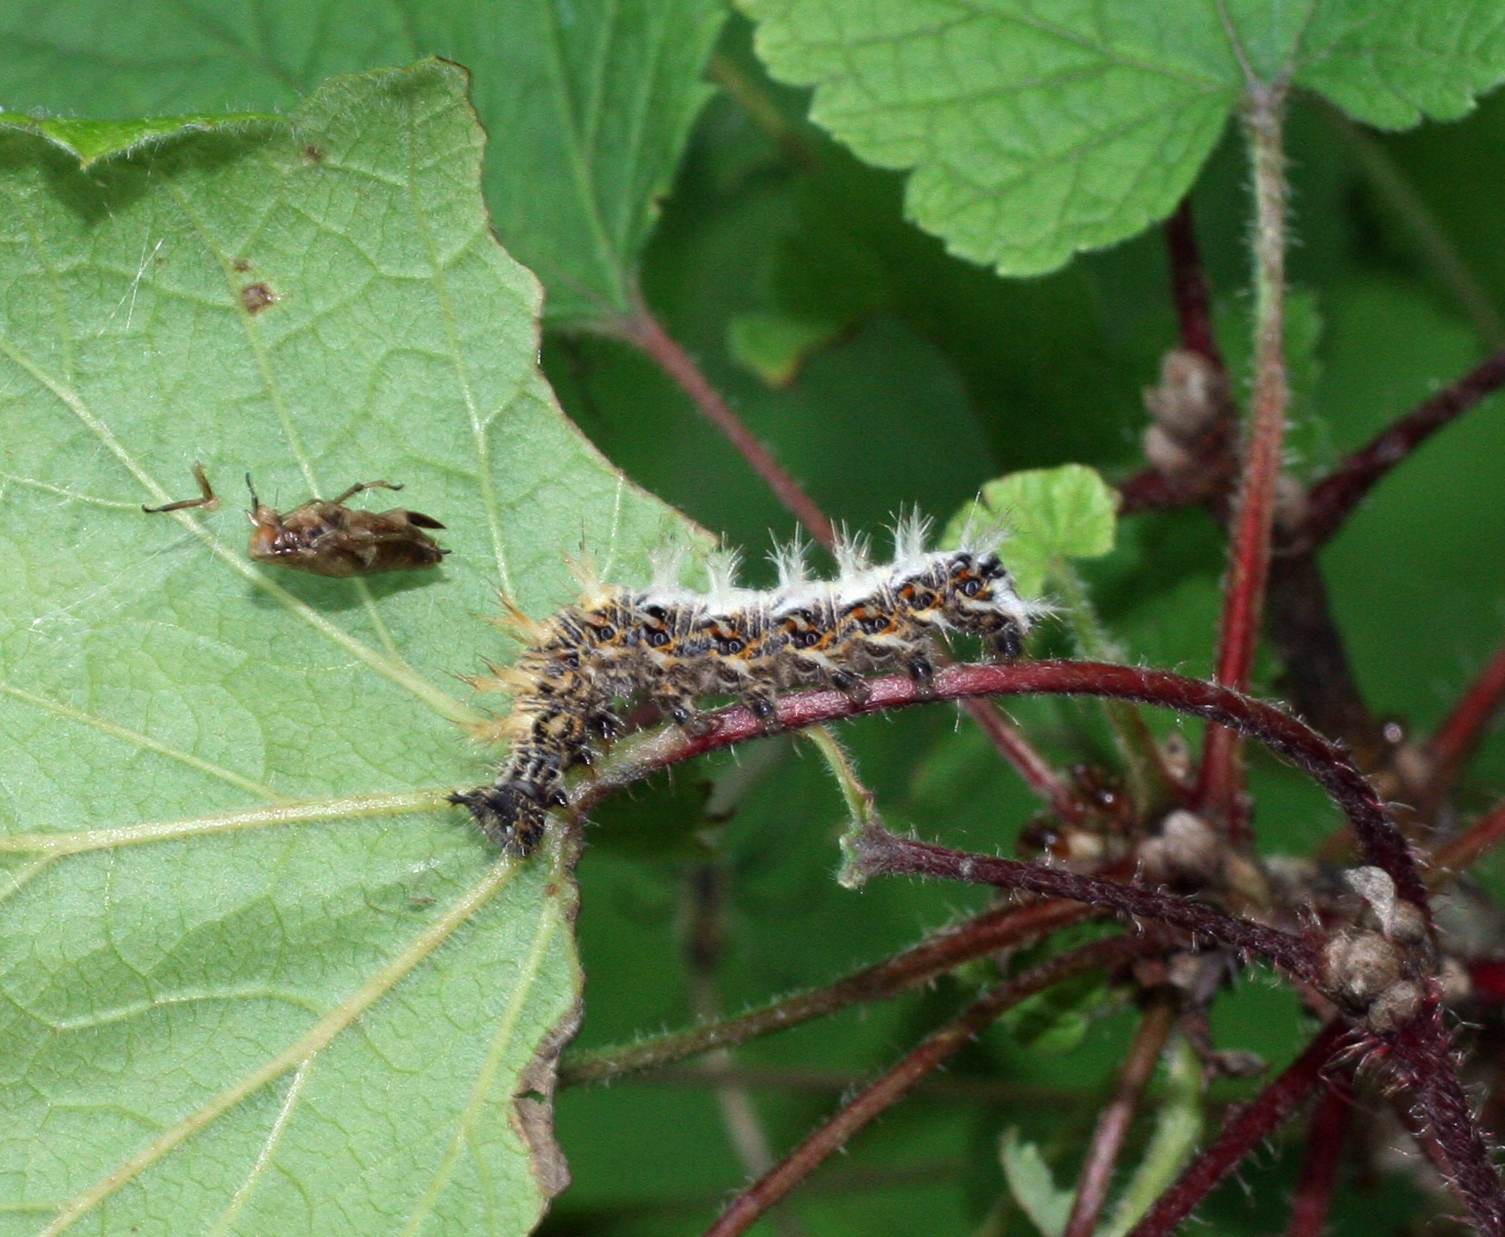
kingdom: Animalia
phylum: Arthropoda
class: Insecta
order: Lepidoptera
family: Nymphalidae
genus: Polygonia
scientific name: Polygonia c-album
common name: Comma
